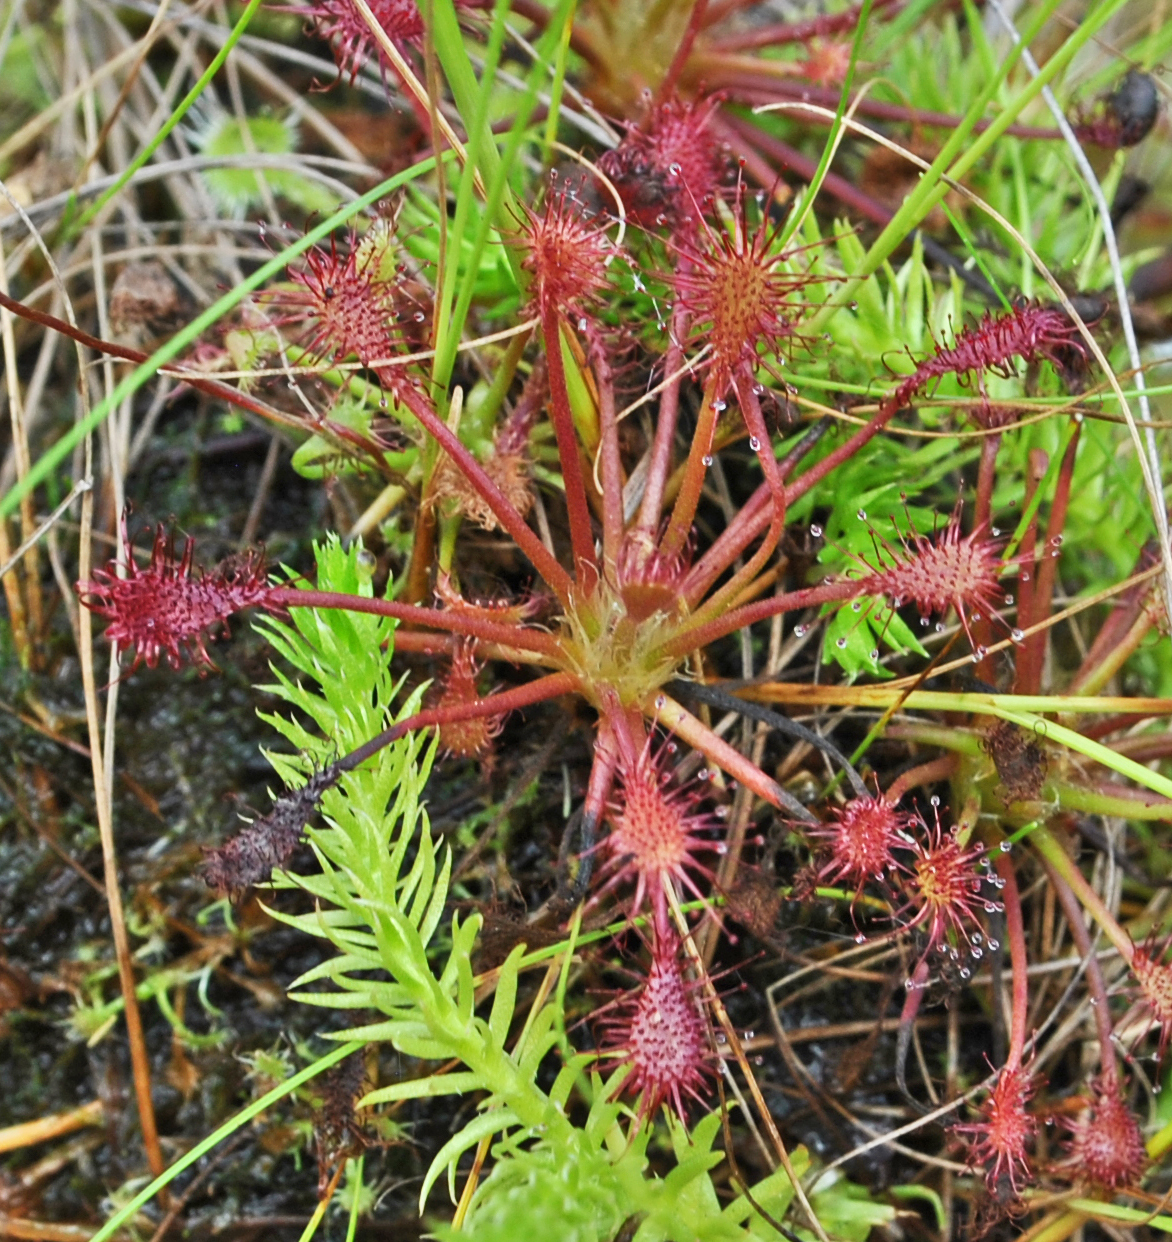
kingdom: Plantae
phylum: Tracheophyta
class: Magnoliopsida
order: Caryophyllales
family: Droseraceae
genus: Drosera
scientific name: Drosera intermedia
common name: Oblong-leaved sundew
